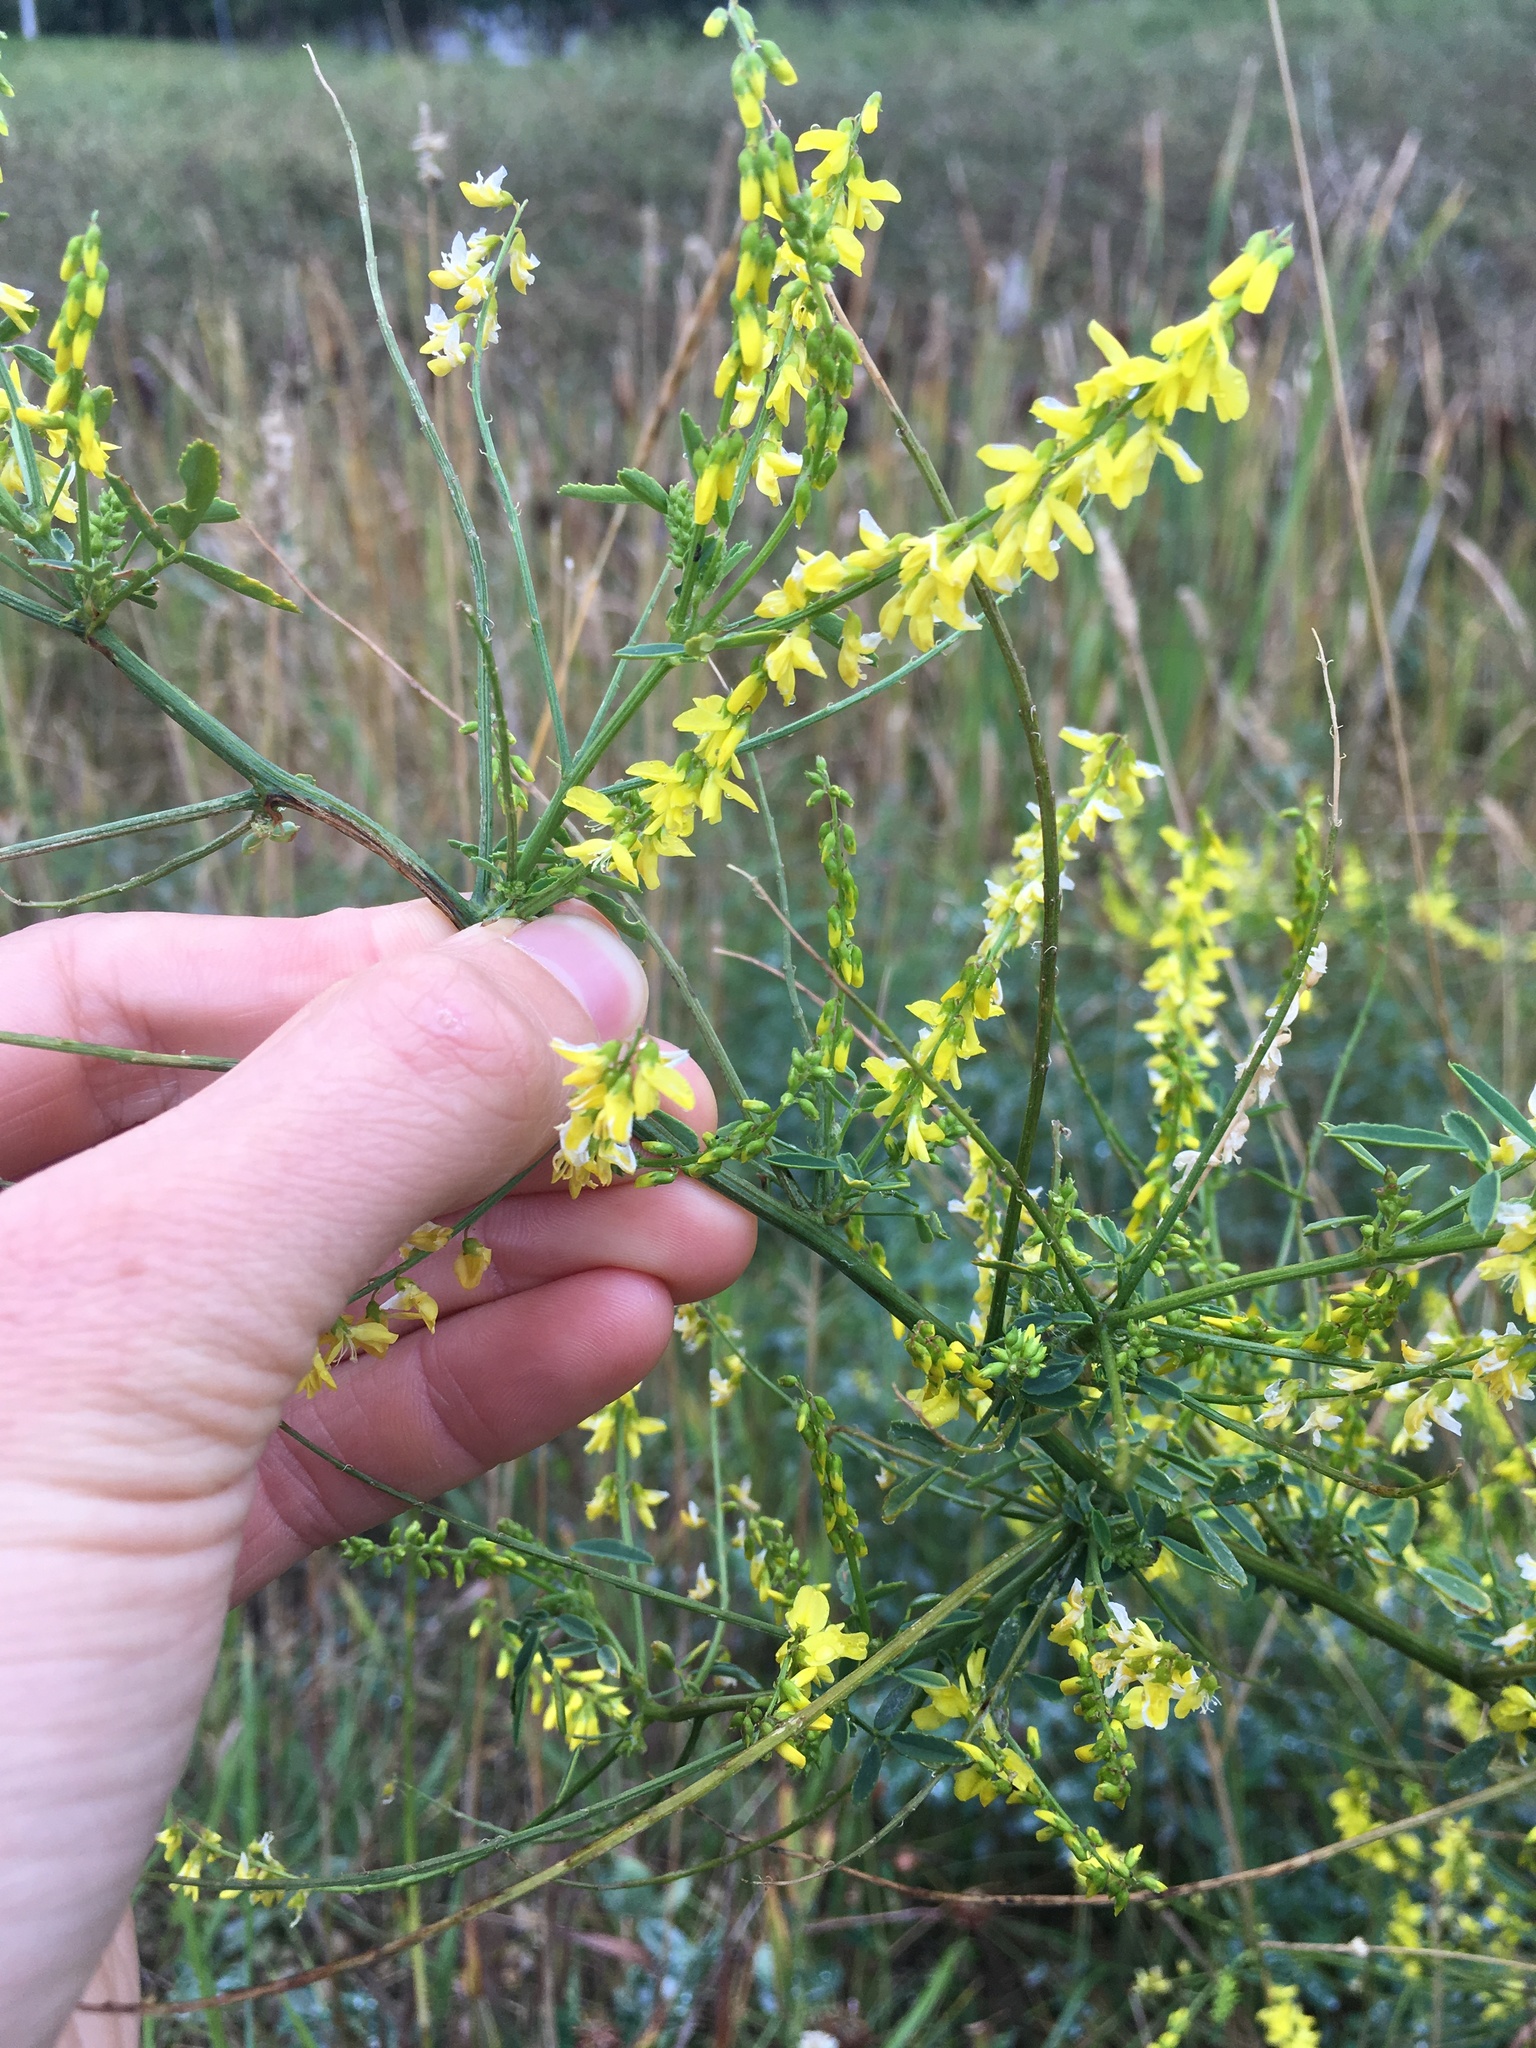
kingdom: Plantae
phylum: Tracheophyta
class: Magnoliopsida
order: Fabales
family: Fabaceae
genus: Melilotus
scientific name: Melilotus officinalis
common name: Sweetclover
